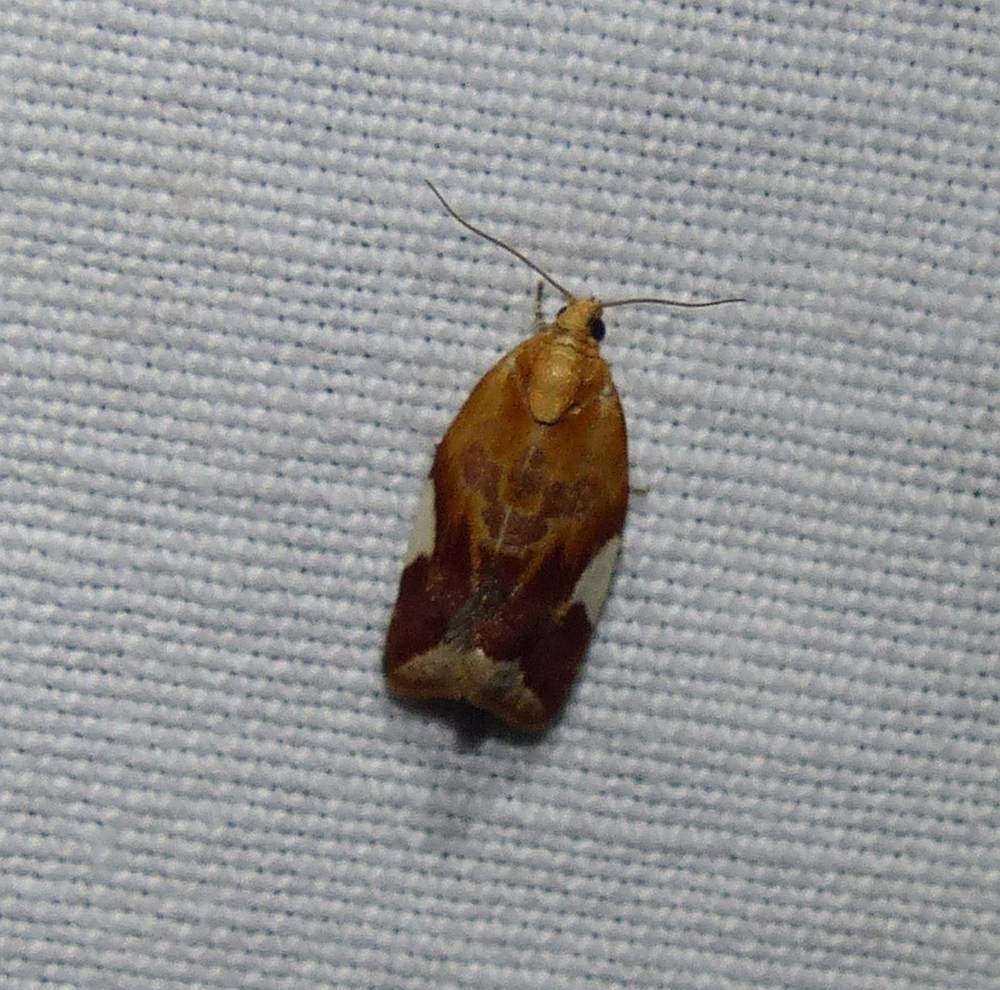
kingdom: Animalia
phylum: Arthropoda
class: Insecta
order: Lepidoptera
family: Tortricidae
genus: Clepsis
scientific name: Clepsis persicana
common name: White triangle tortrix
